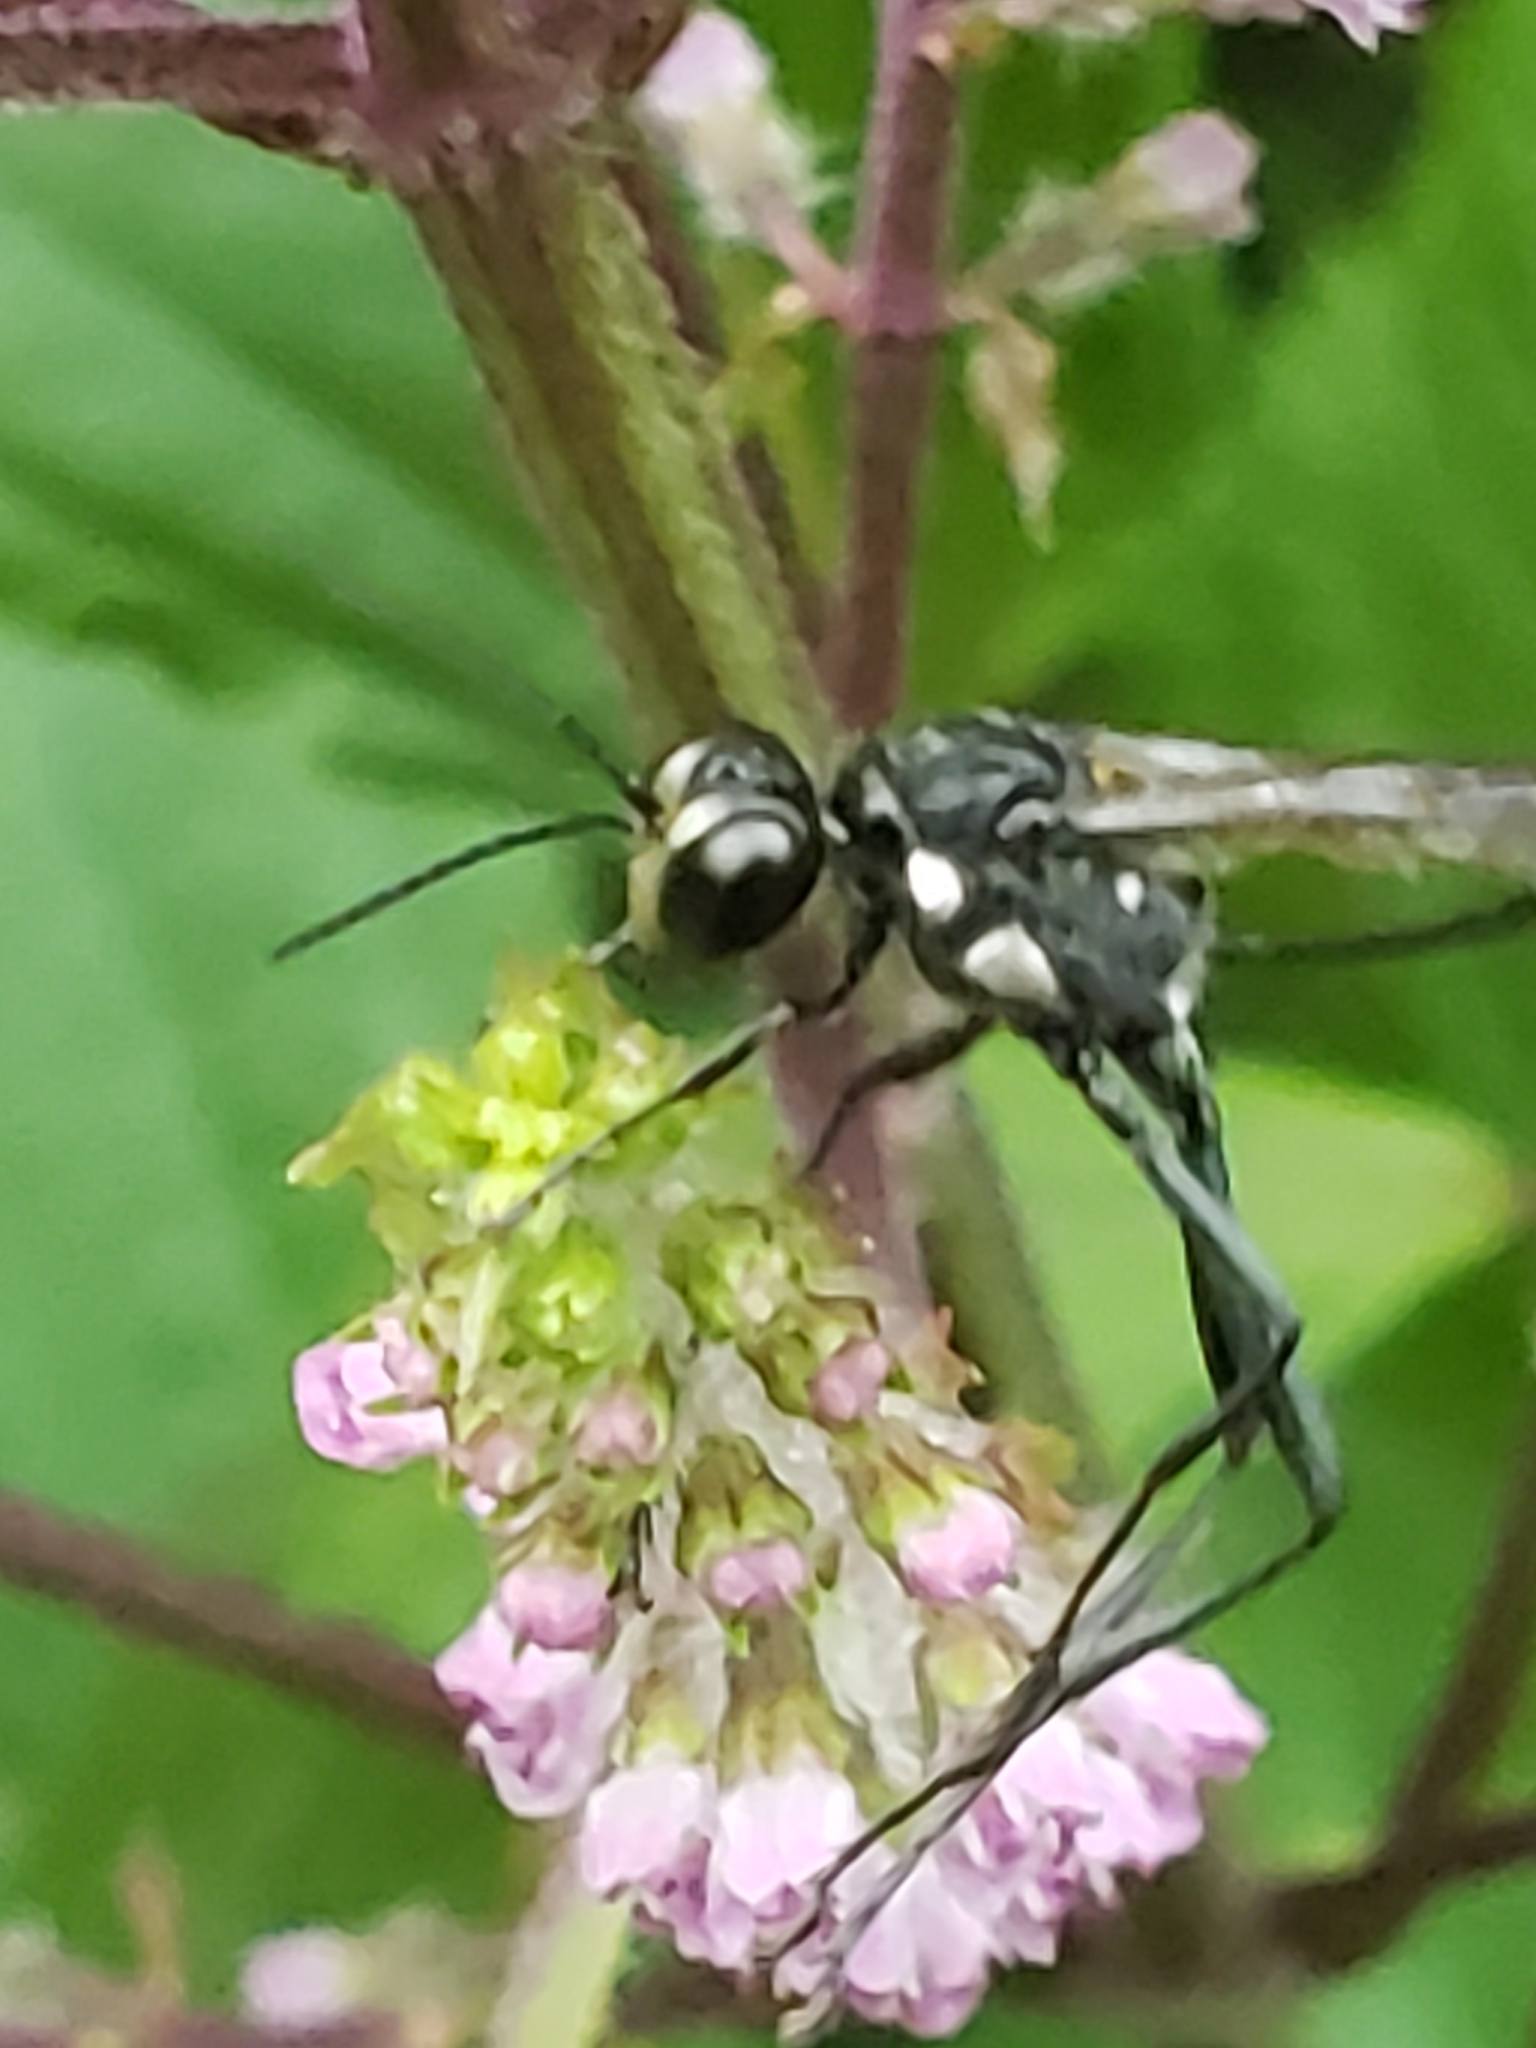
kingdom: Animalia
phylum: Arthropoda
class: Insecta
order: Hymenoptera
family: Sphecidae
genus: Eremnophila
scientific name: Eremnophila aureonotata
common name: Gold-marked thread-waisted wasp
